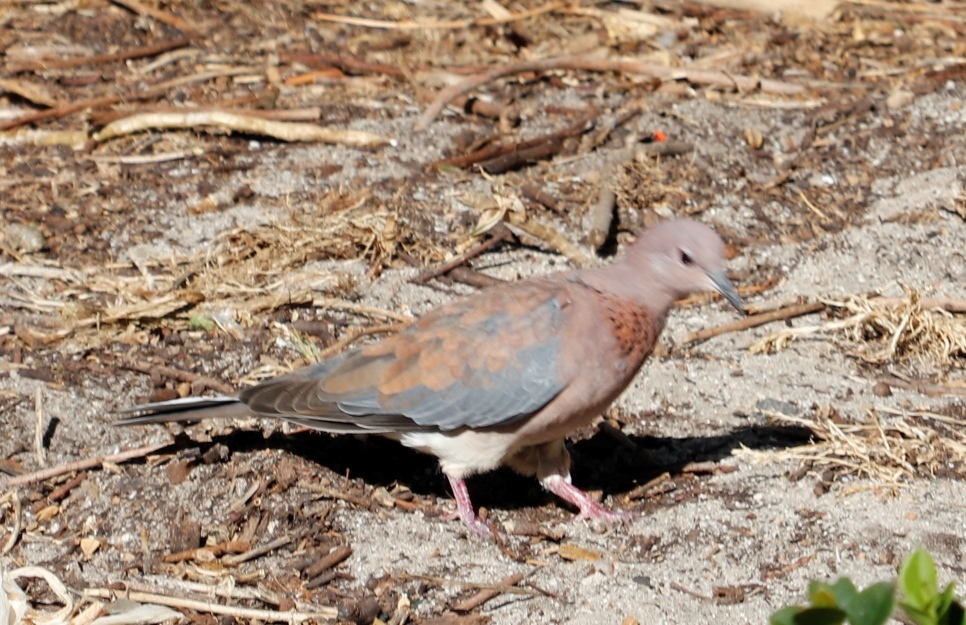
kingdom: Animalia
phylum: Chordata
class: Aves
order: Columbiformes
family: Columbidae
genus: Spilopelia
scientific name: Spilopelia senegalensis
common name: Laughing dove
